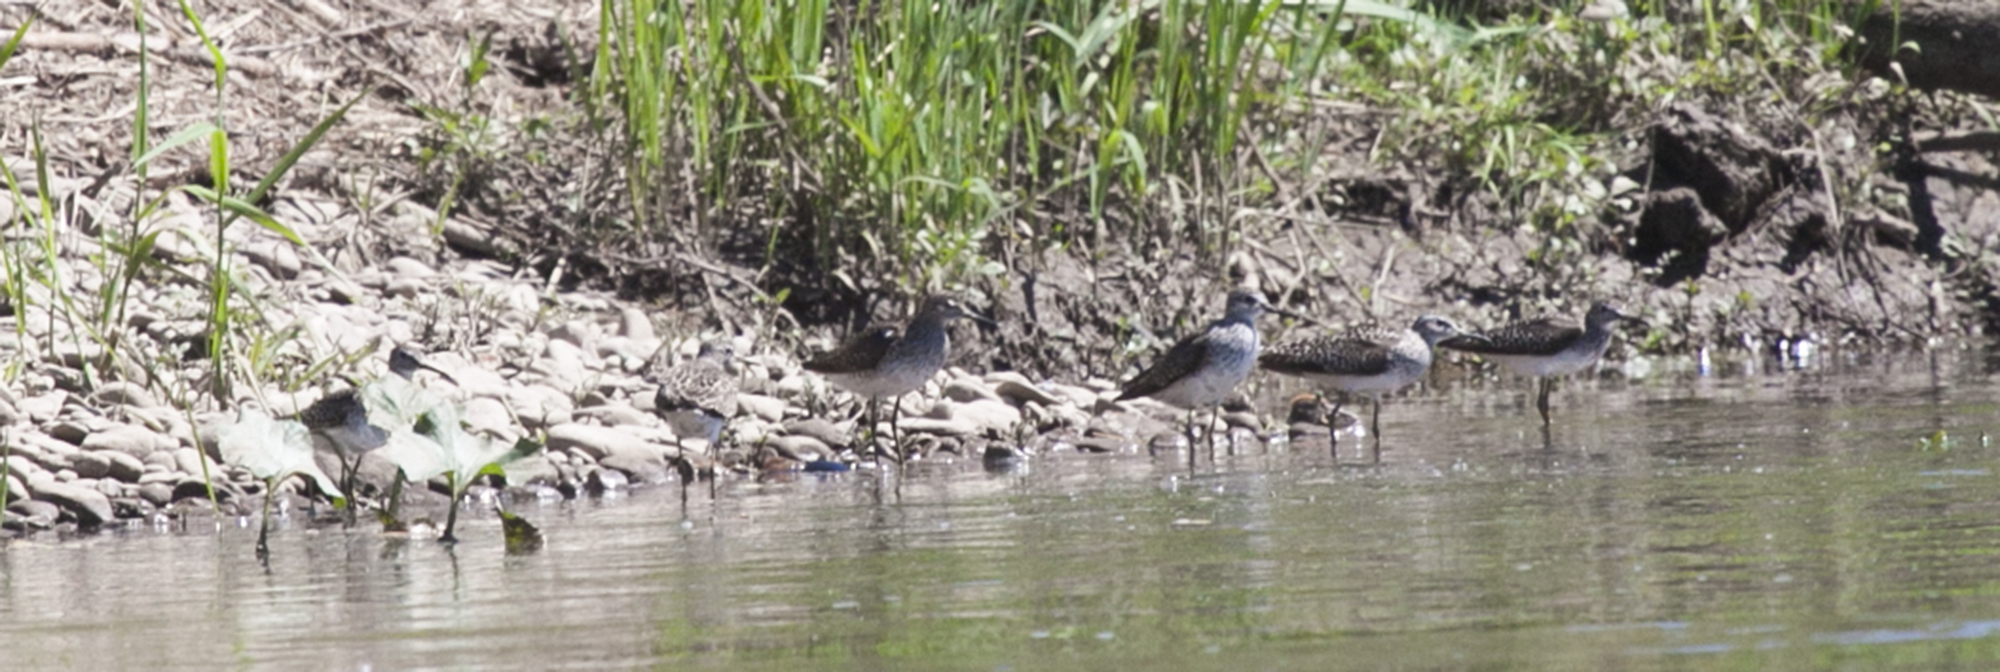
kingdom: Animalia
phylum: Chordata
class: Aves
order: Charadriiformes
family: Scolopacidae
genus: Tringa
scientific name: Tringa ochropus
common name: Green sandpiper
